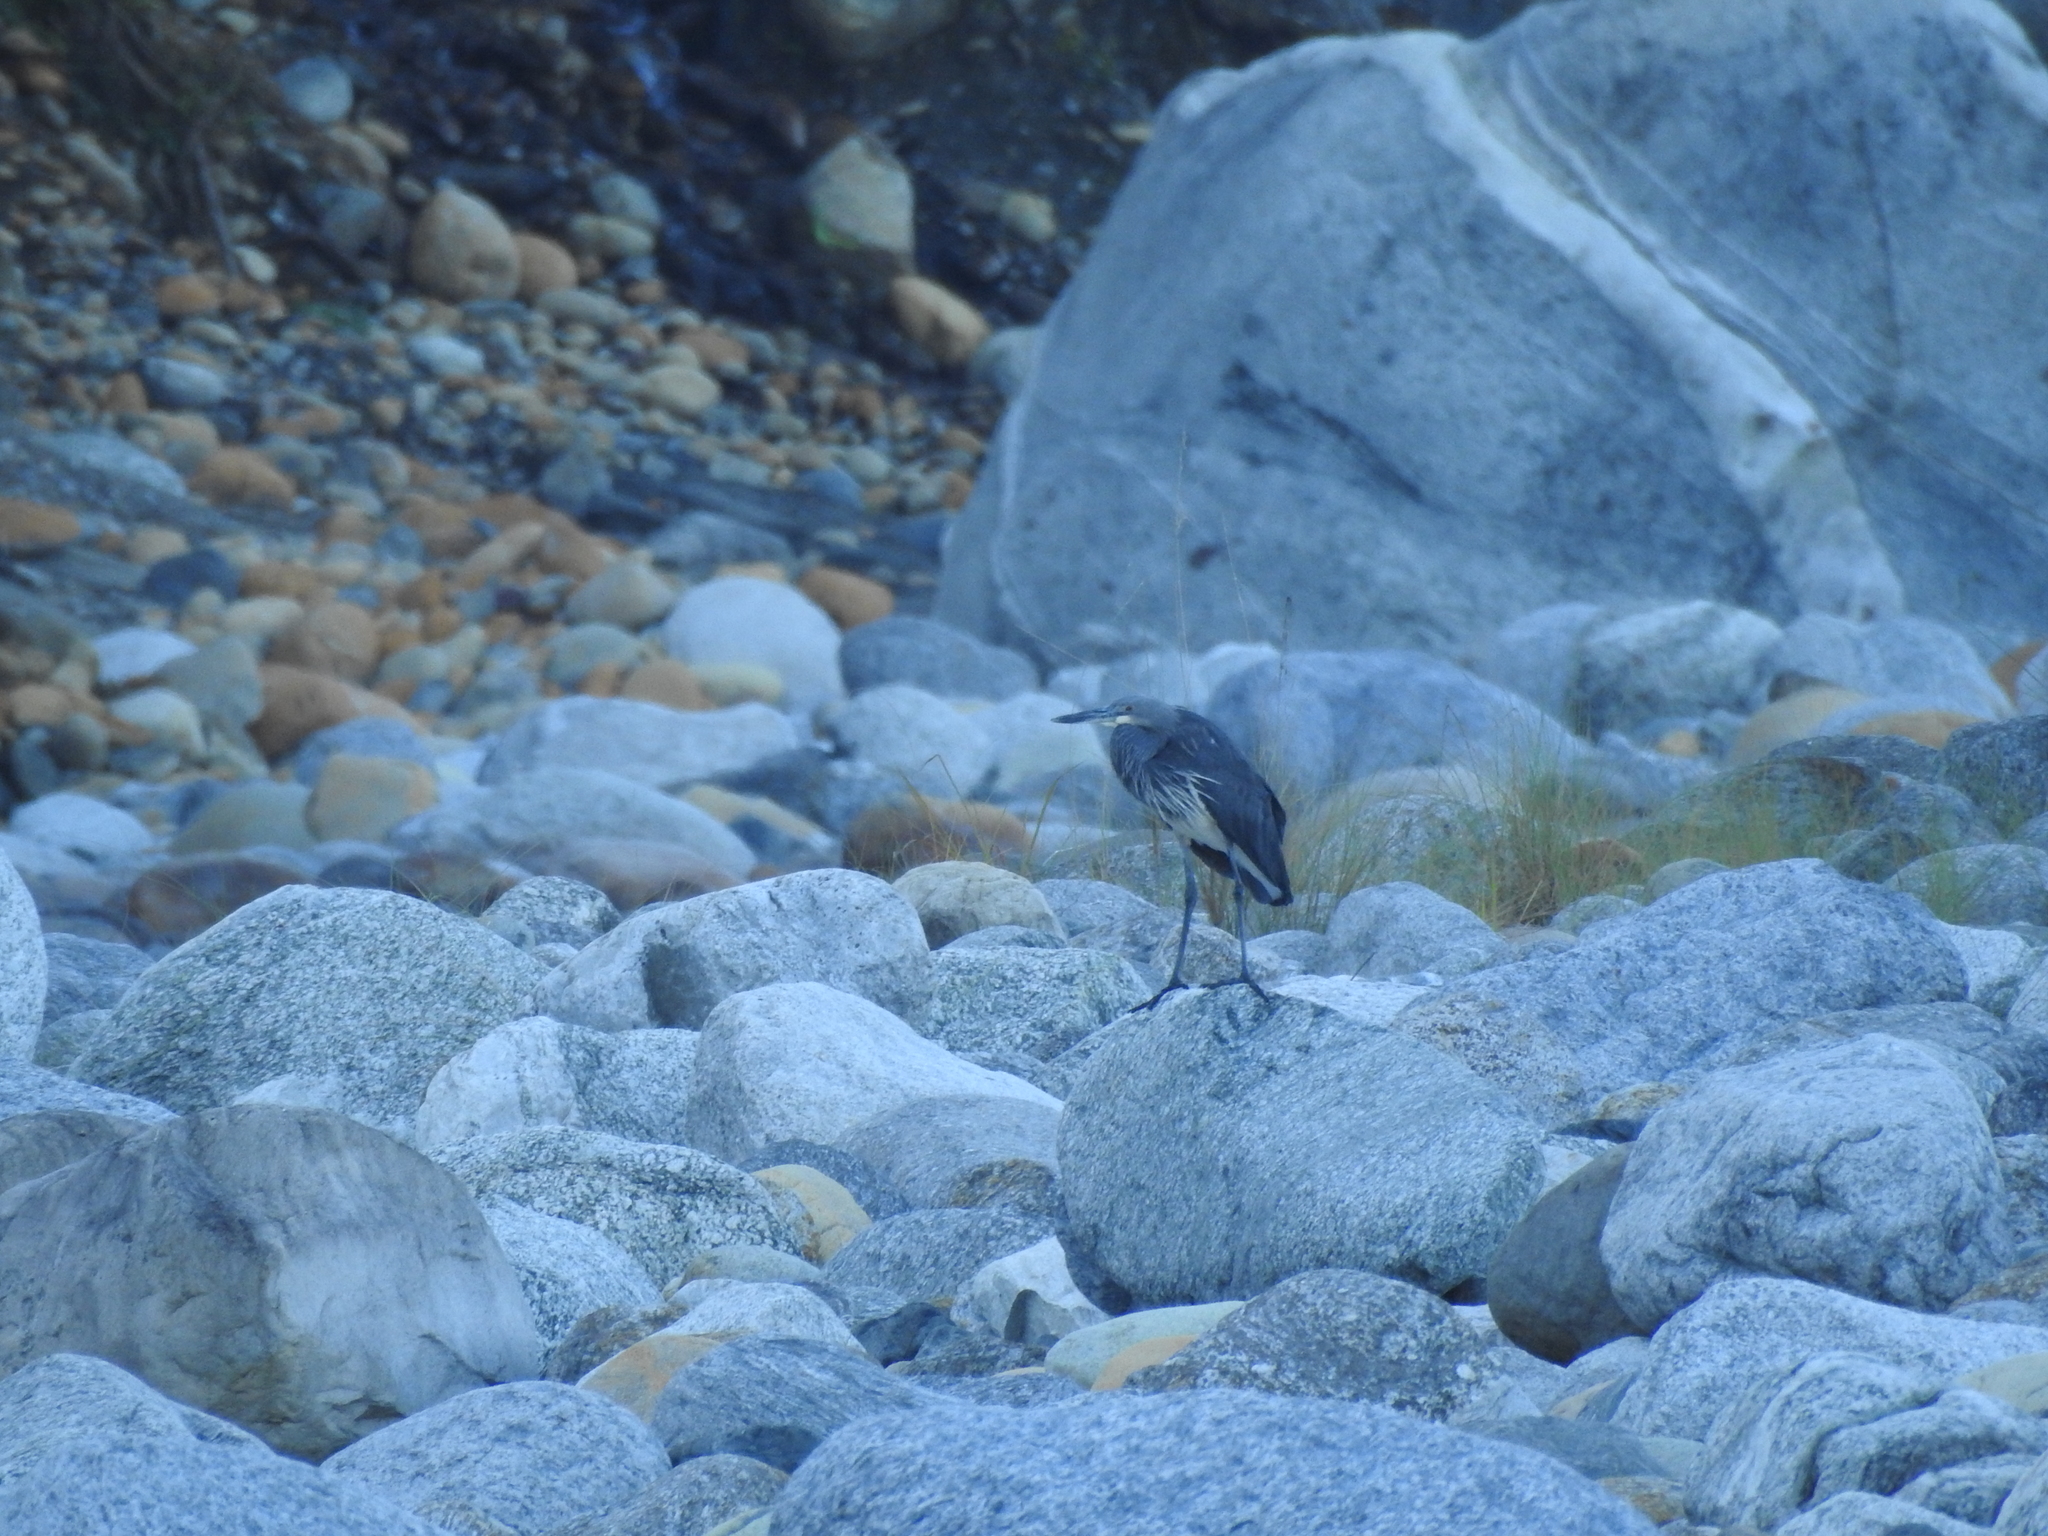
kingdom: Animalia
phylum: Chordata
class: Aves
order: Pelecaniformes
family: Ardeidae
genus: Ardea
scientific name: Ardea insignis
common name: White-bellied heron
